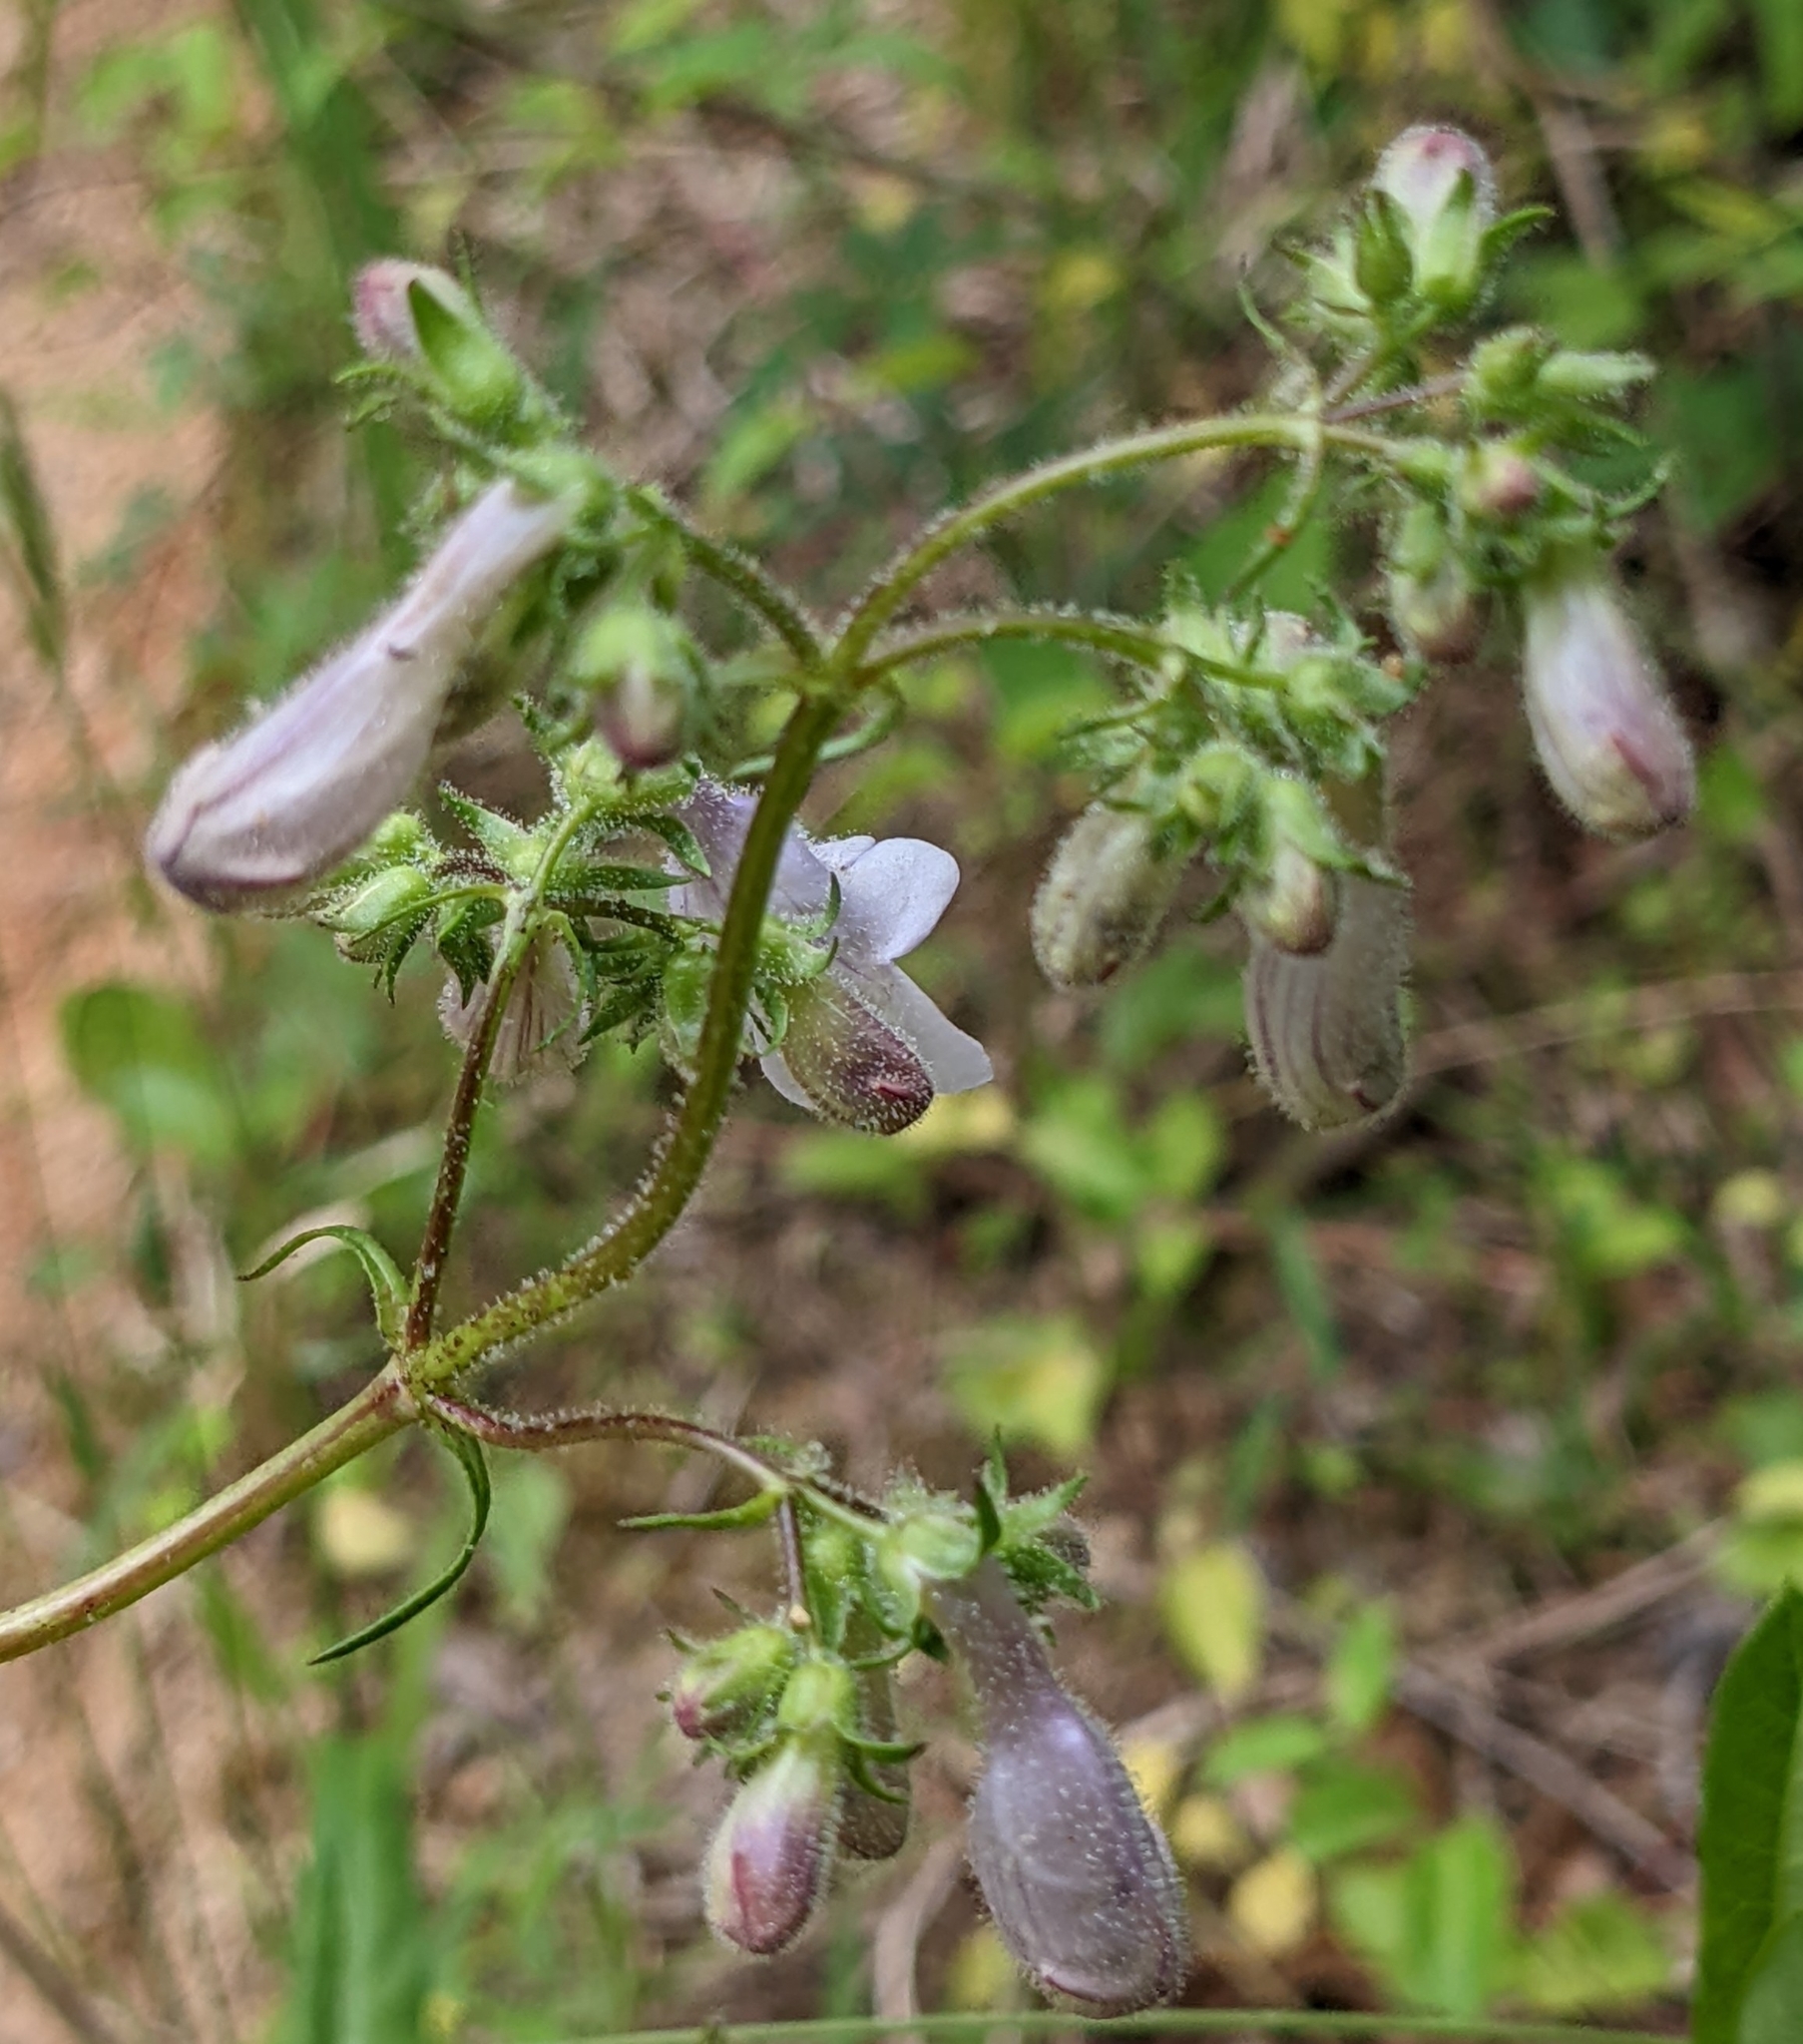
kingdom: Plantae
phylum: Tracheophyta
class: Magnoliopsida
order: Lamiales
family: Plantaginaceae
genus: Penstemon
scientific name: Penstemon laevigatus
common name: Eastern beardtongue
